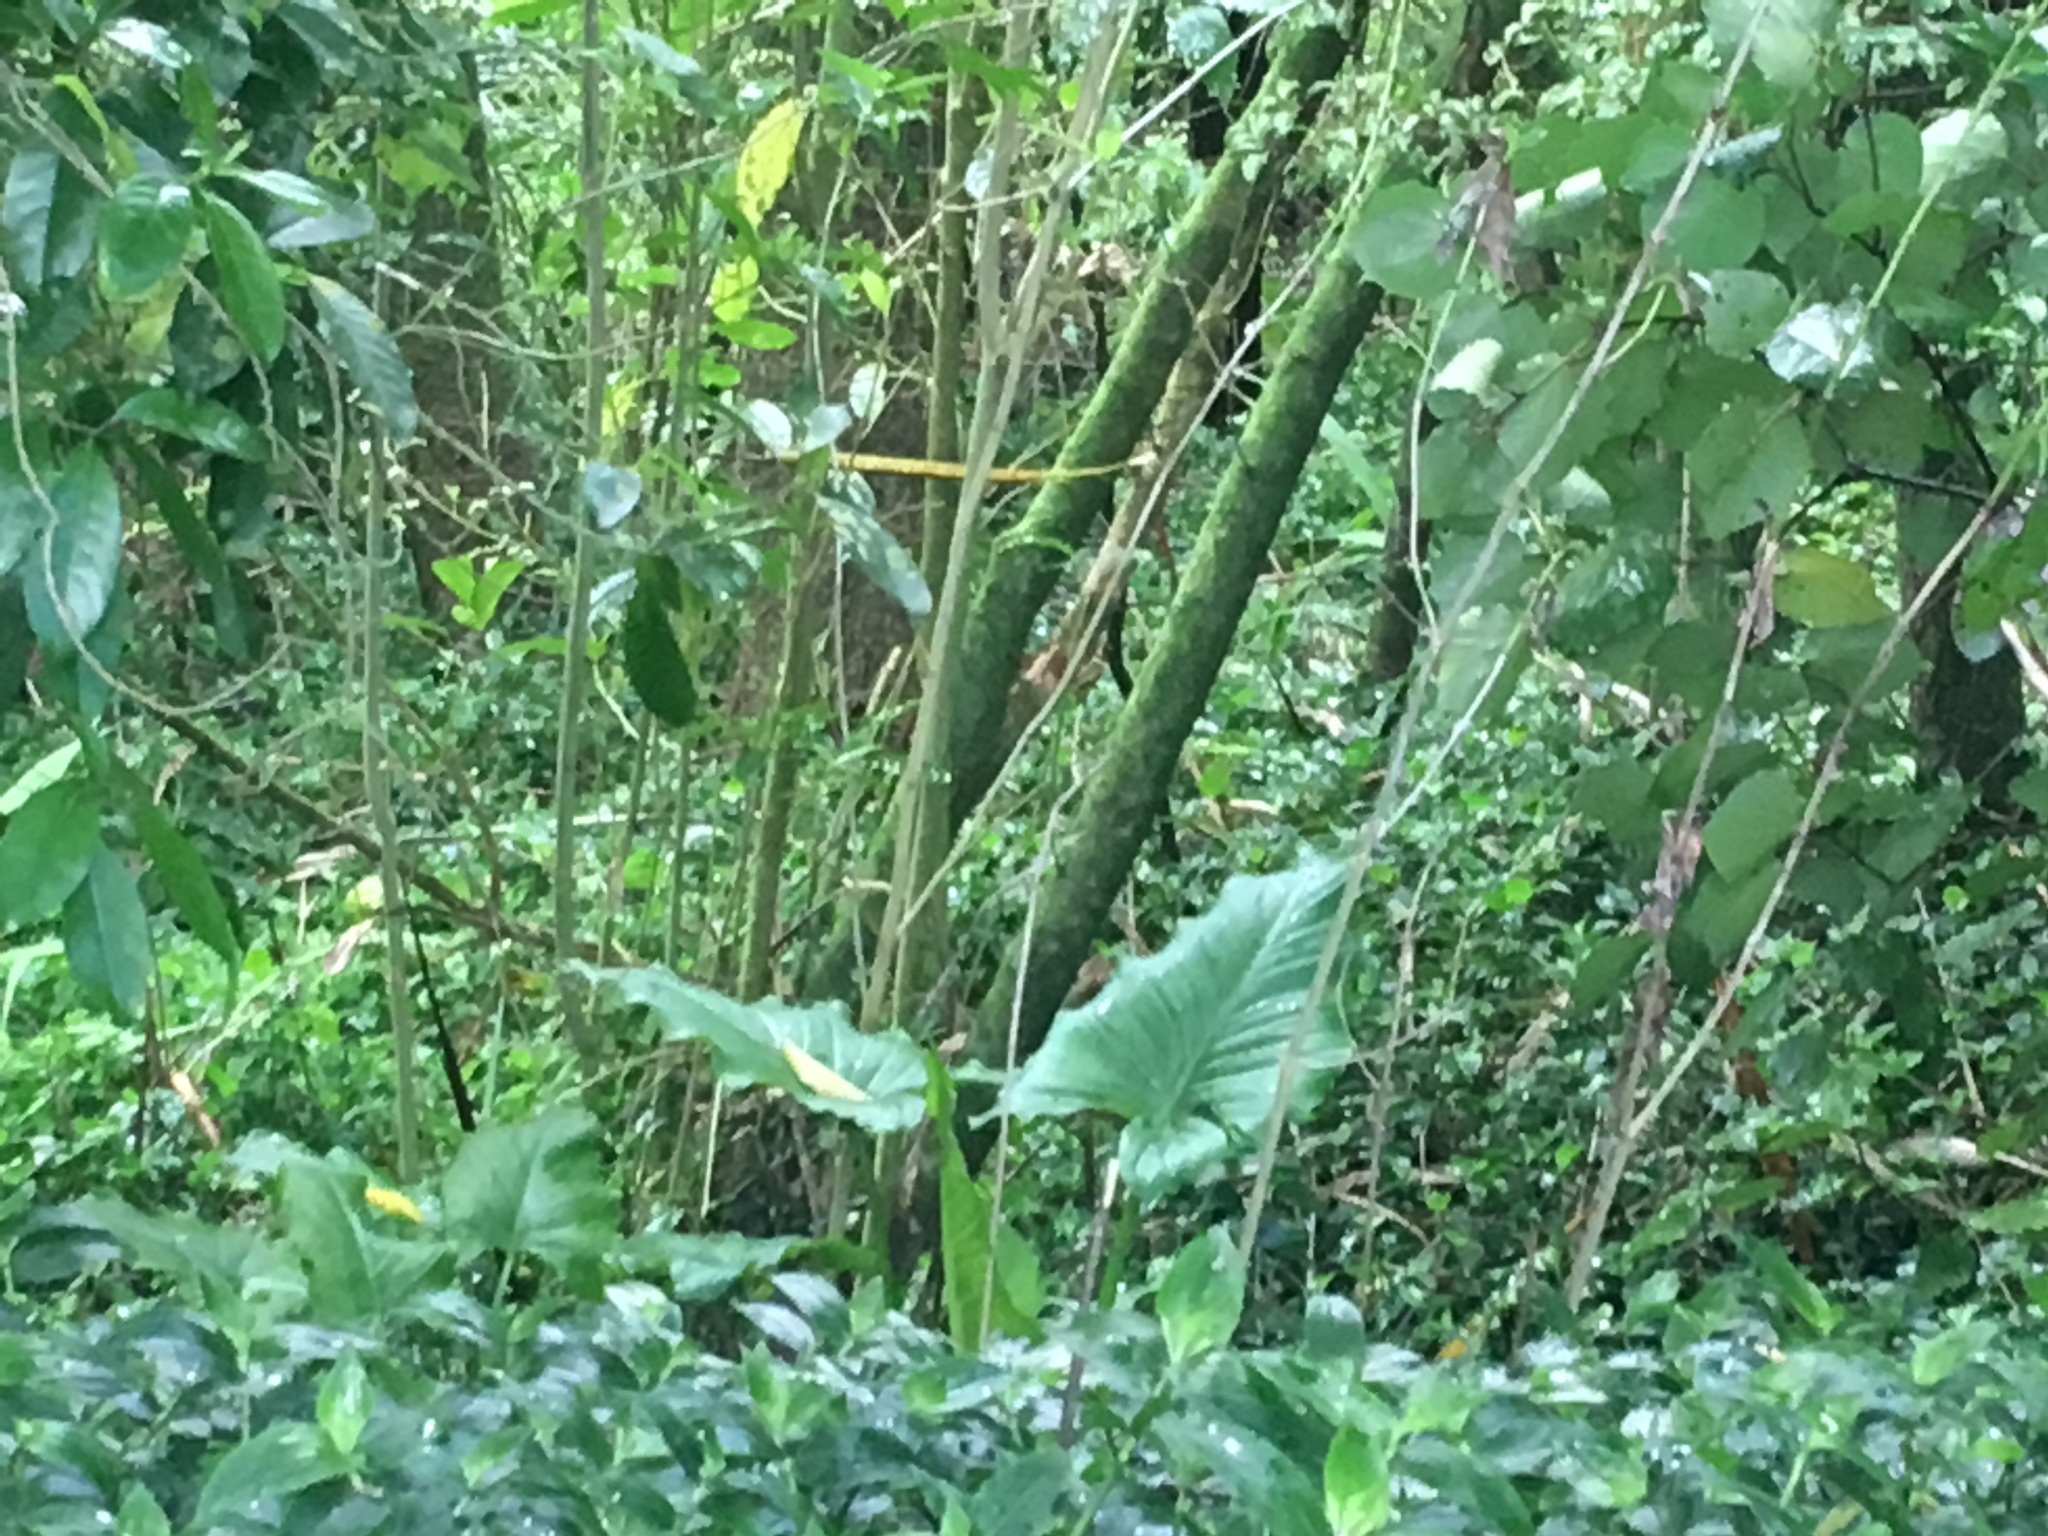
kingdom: Plantae
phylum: Tracheophyta
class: Liliopsida
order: Alismatales
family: Araceae
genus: Zantedeschia
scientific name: Zantedeschia aethiopica
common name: Altar-lily
